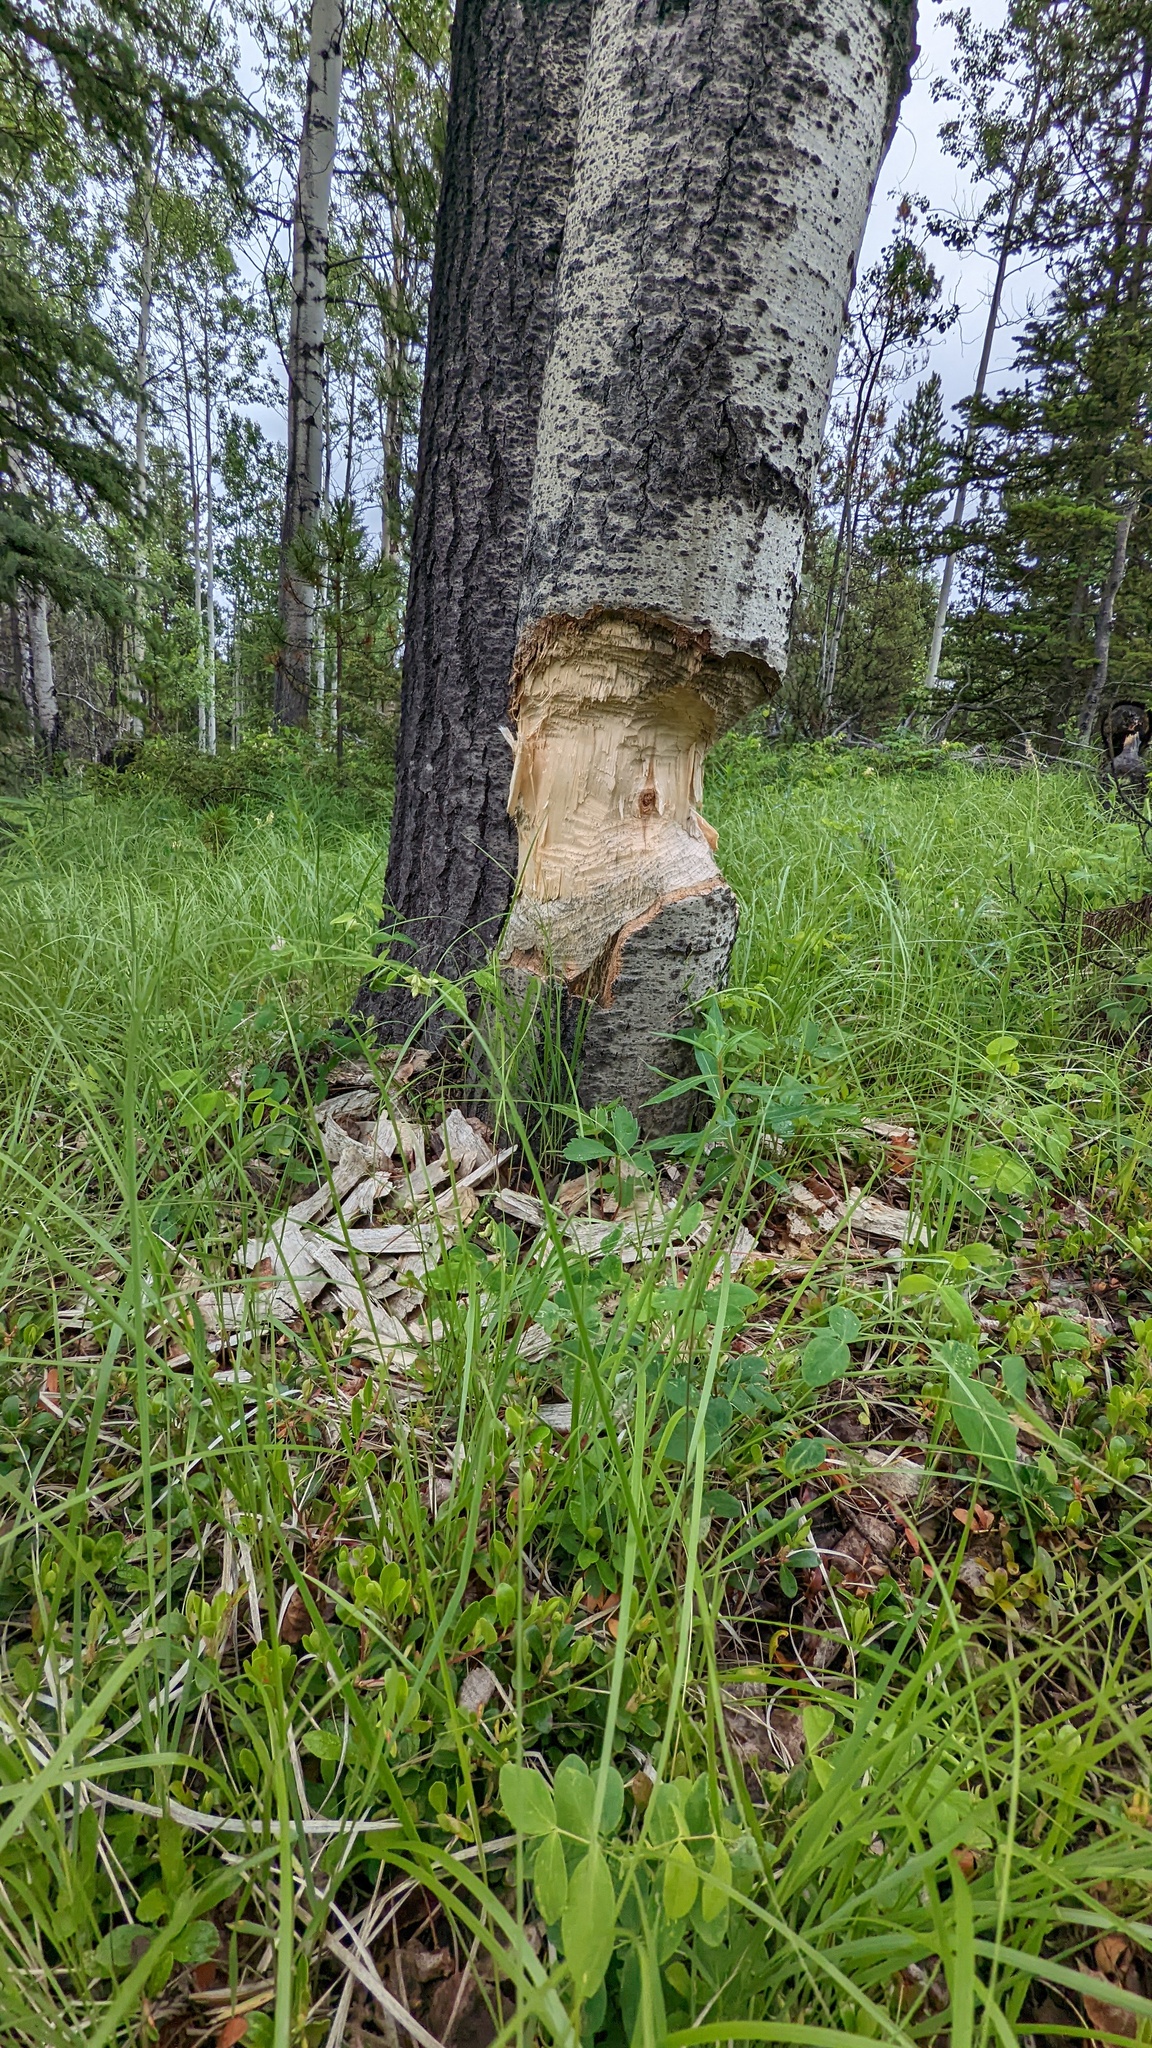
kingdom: Animalia
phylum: Chordata
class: Mammalia
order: Rodentia
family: Castoridae
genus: Castor
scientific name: Castor canadensis
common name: American beaver
